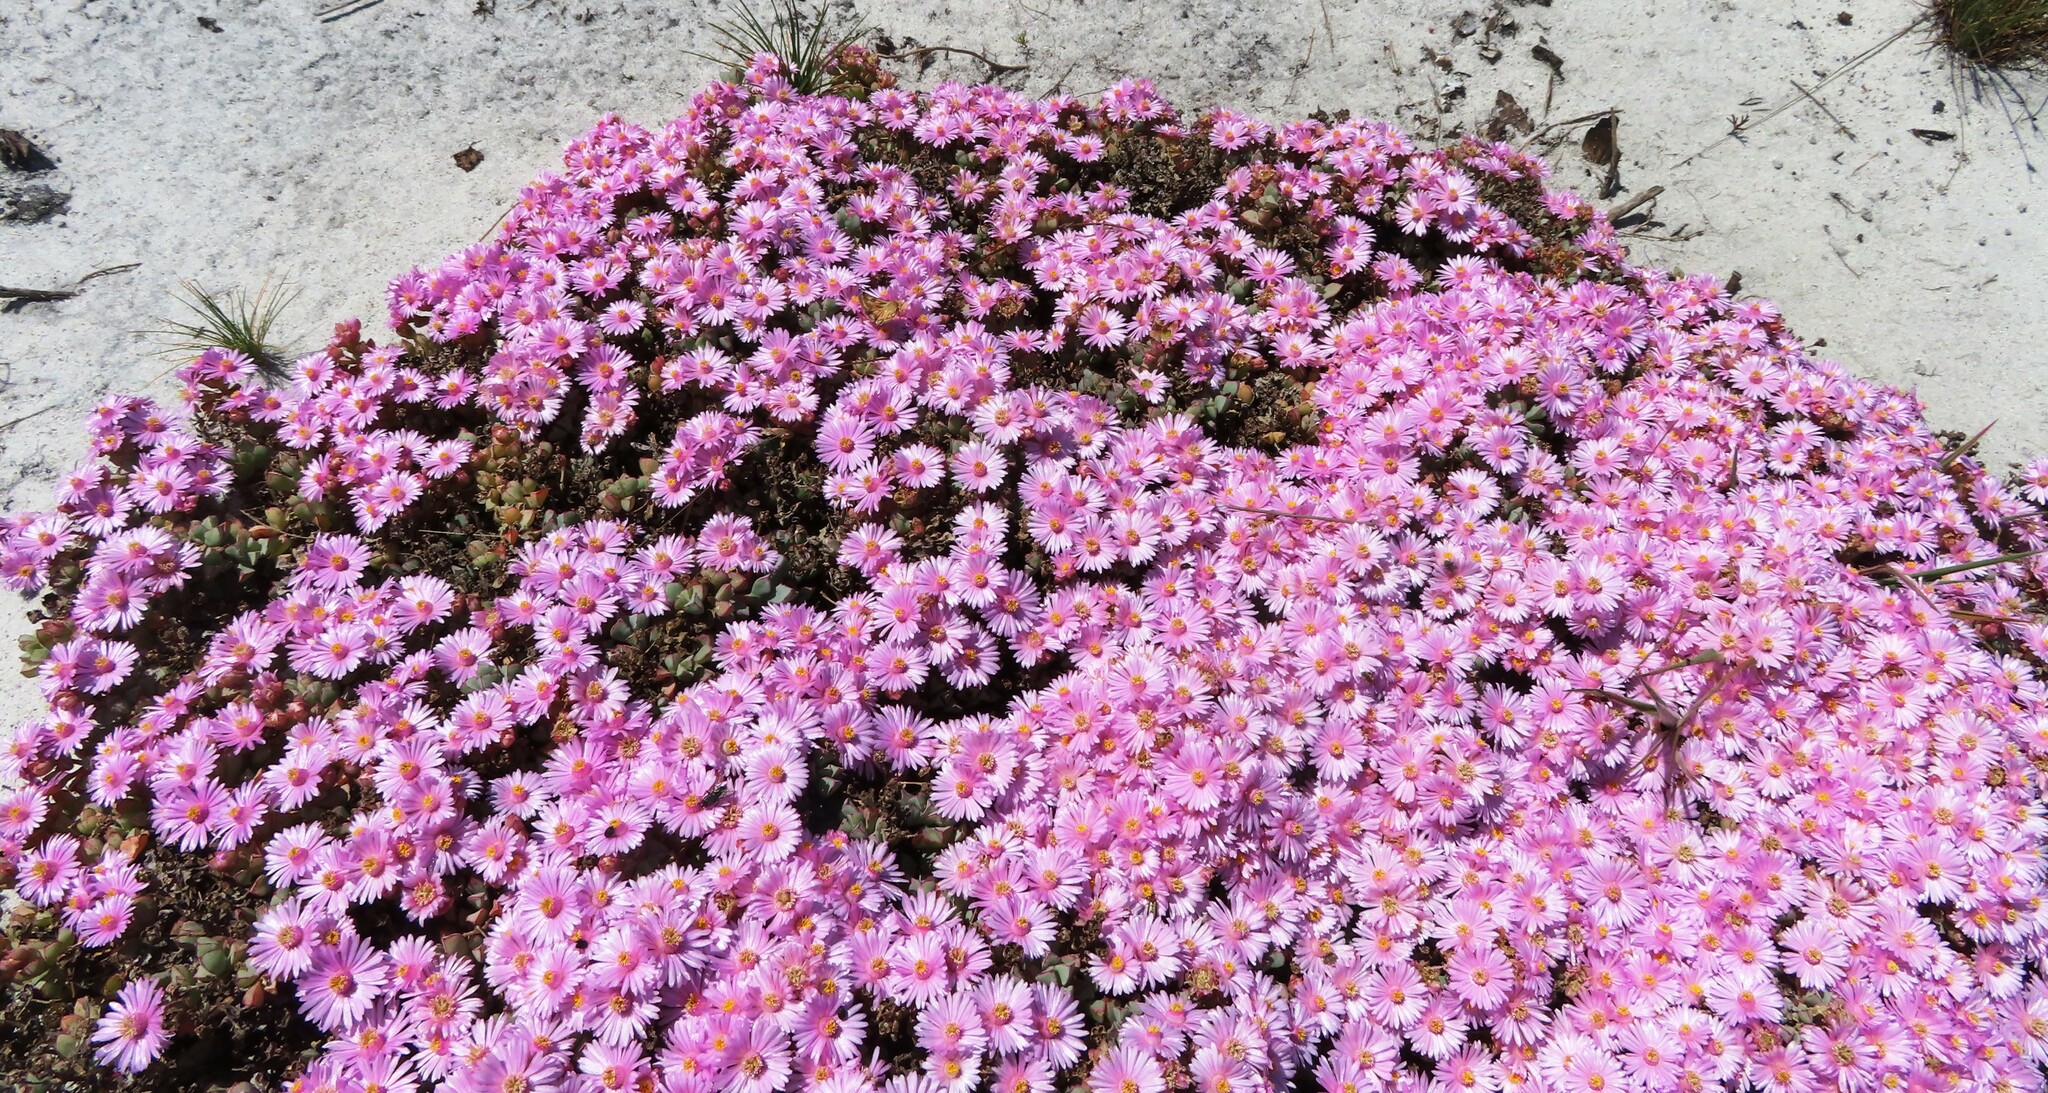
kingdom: Plantae
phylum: Tracheophyta
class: Magnoliopsida
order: Caryophyllales
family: Aizoaceae
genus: Oscularia
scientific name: Oscularia caulescens
